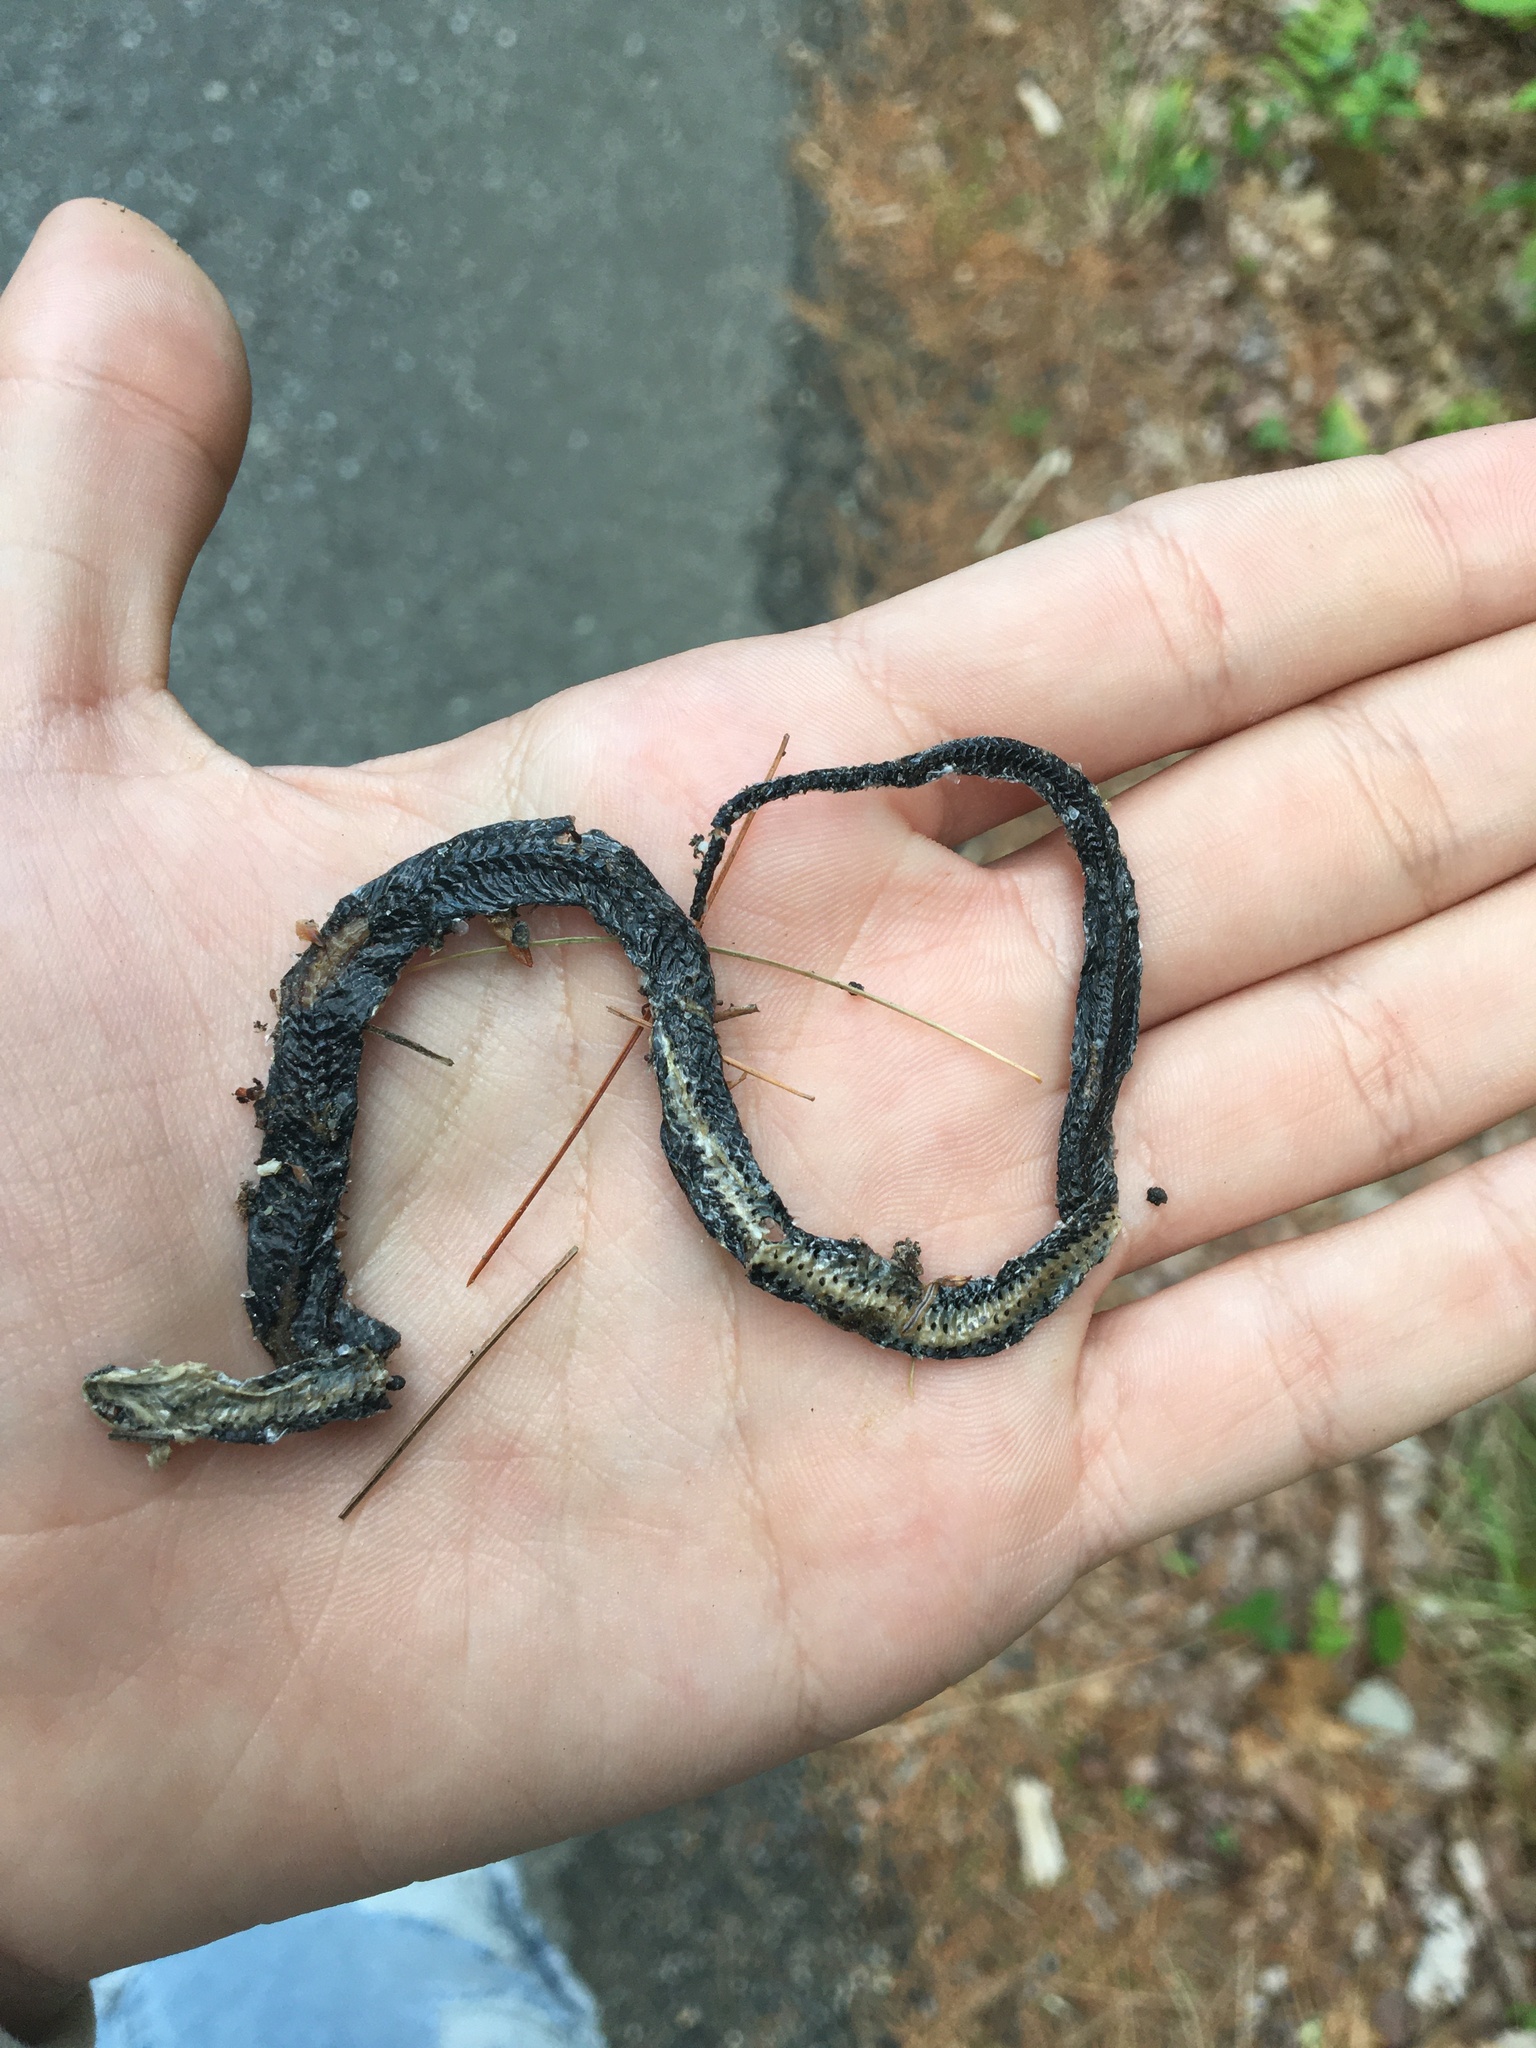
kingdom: Animalia
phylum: Chordata
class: Squamata
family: Colubridae
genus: Diadophis
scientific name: Diadophis punctatus
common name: Ringneck snake
